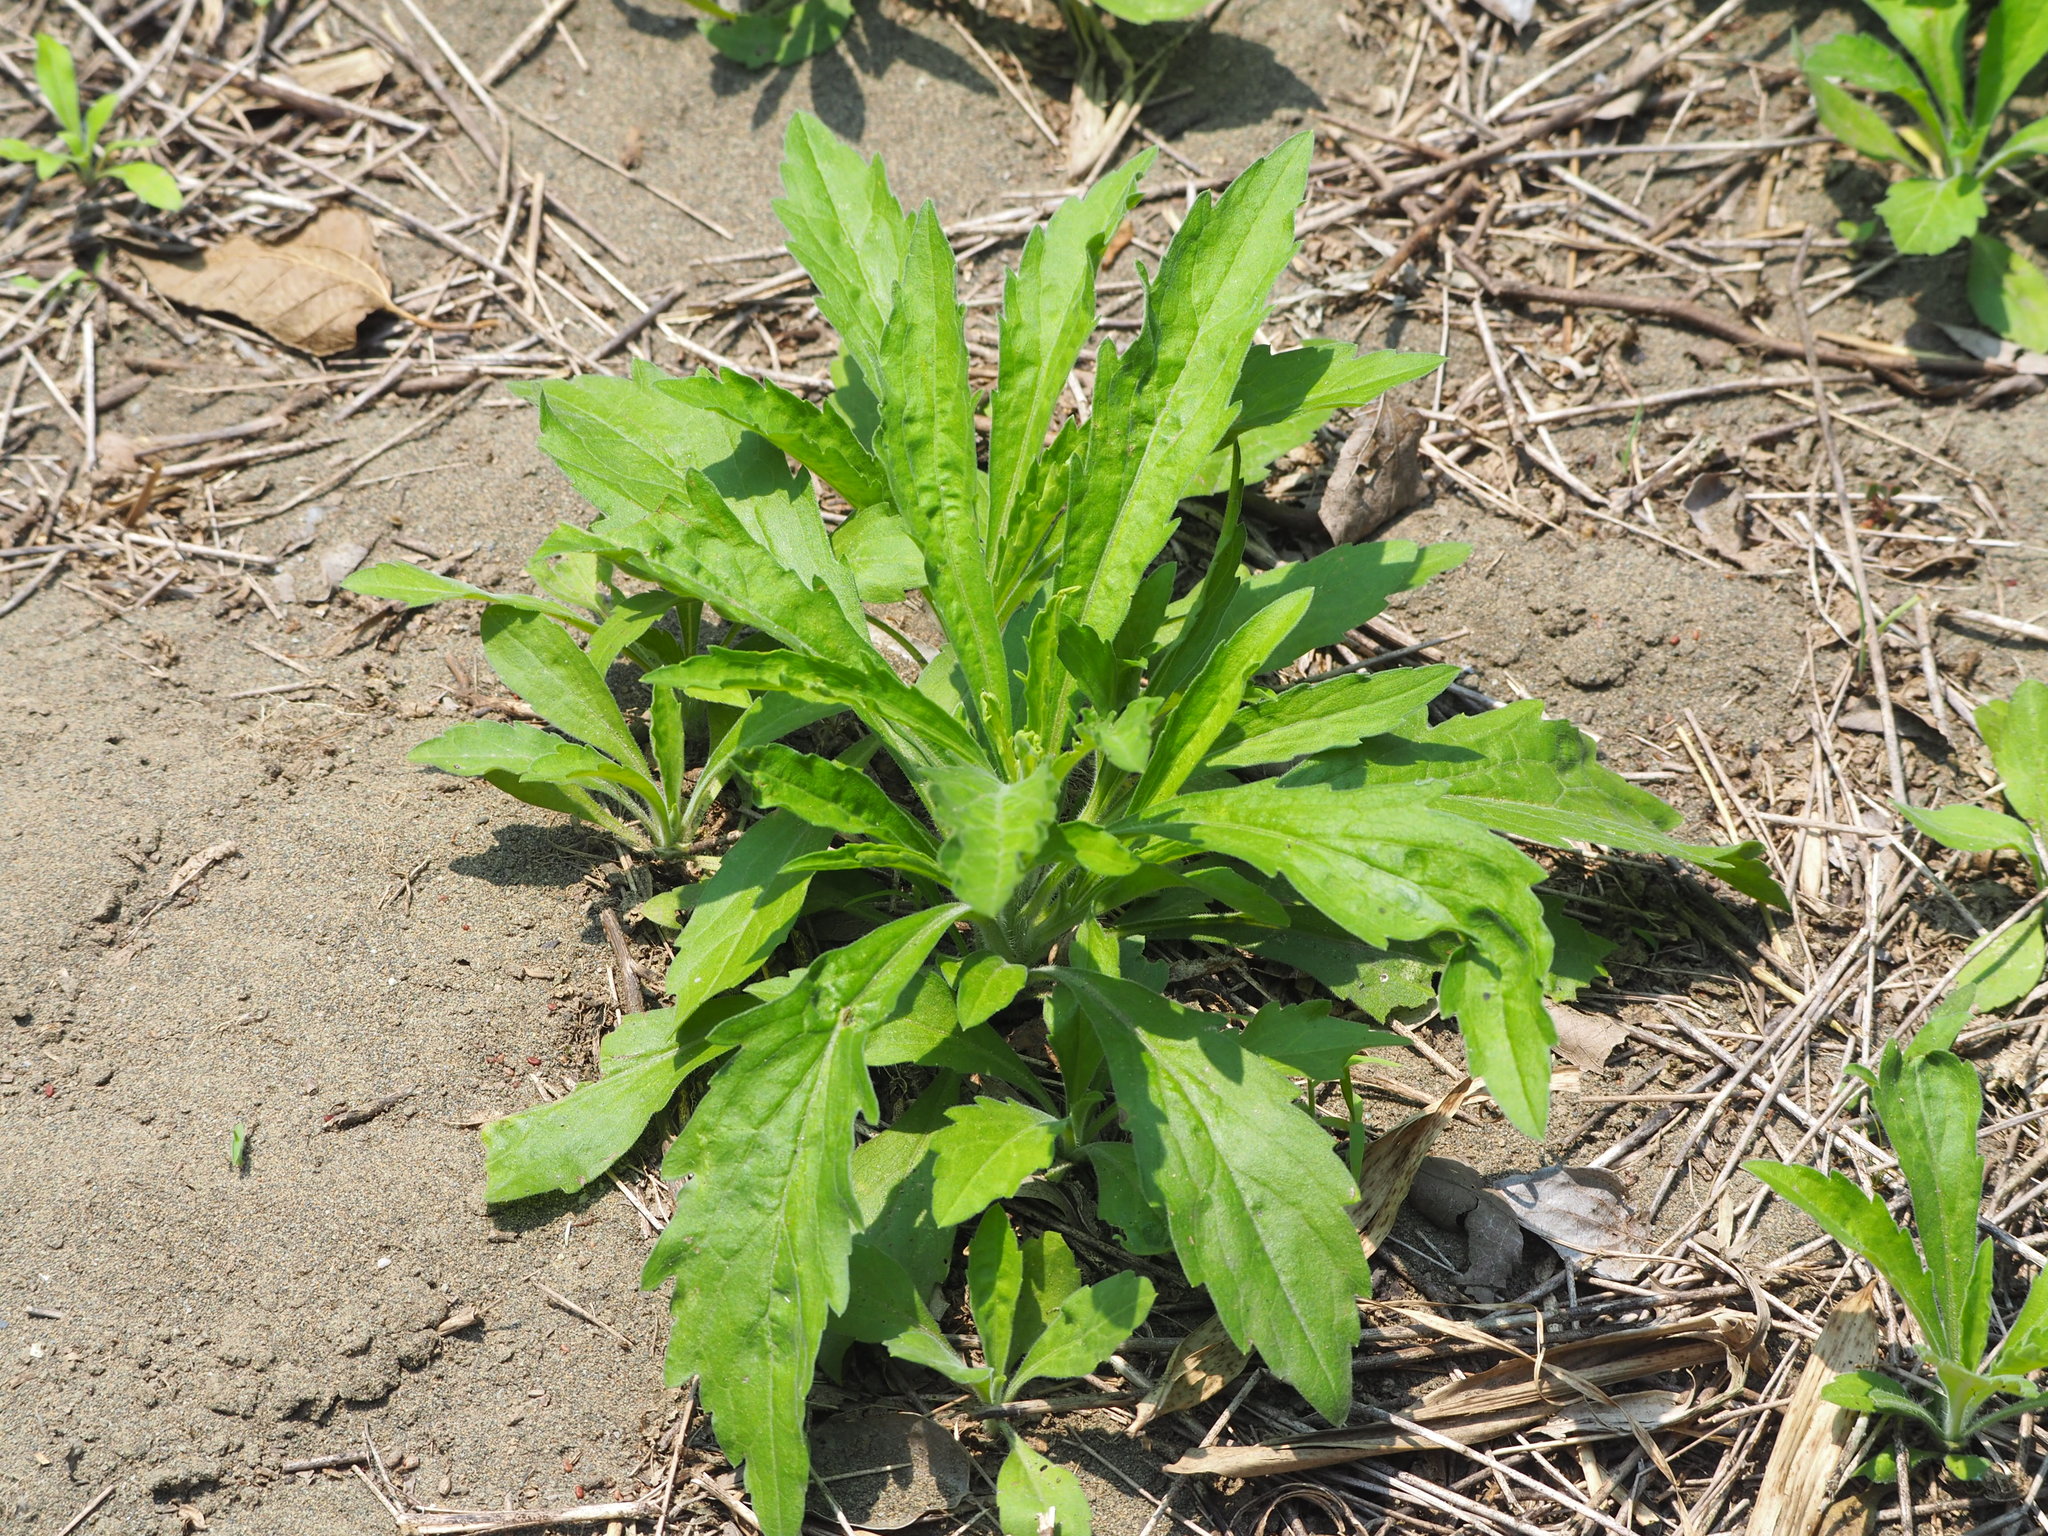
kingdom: Plantae
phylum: Tracheophyta
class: Magnoliopsida
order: Asterales
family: Asteraceae
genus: Erigeron
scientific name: Erigeron sumatrensis
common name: Daisy
